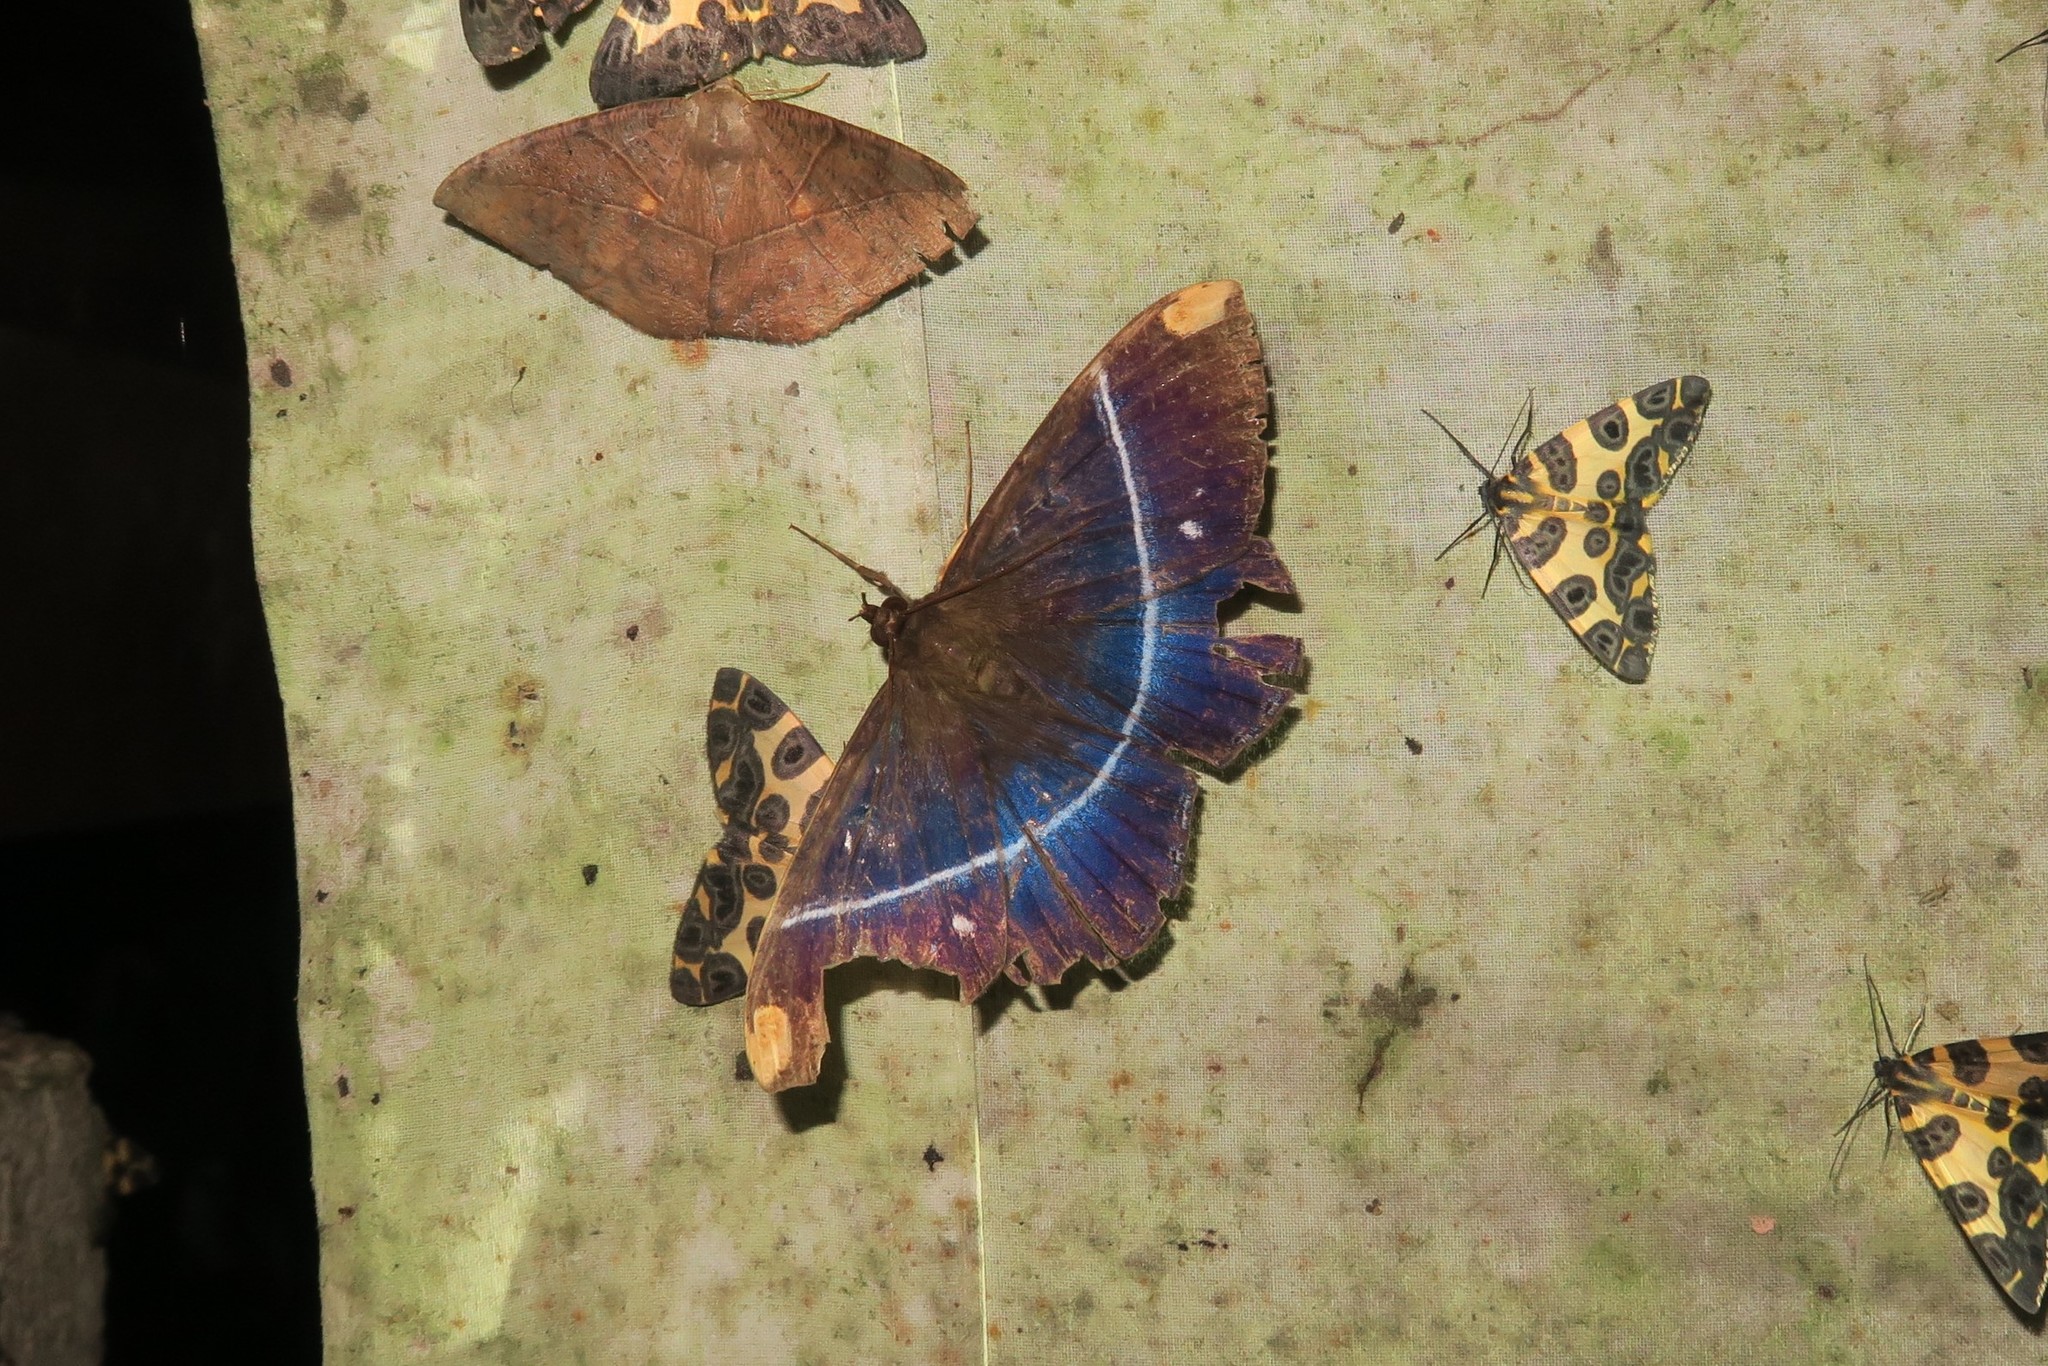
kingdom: Animalia
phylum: Arthropoda
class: Insecta
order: Lepidoptera
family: Erebidae
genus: Hemeroblemma
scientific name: Hemeroblemma
